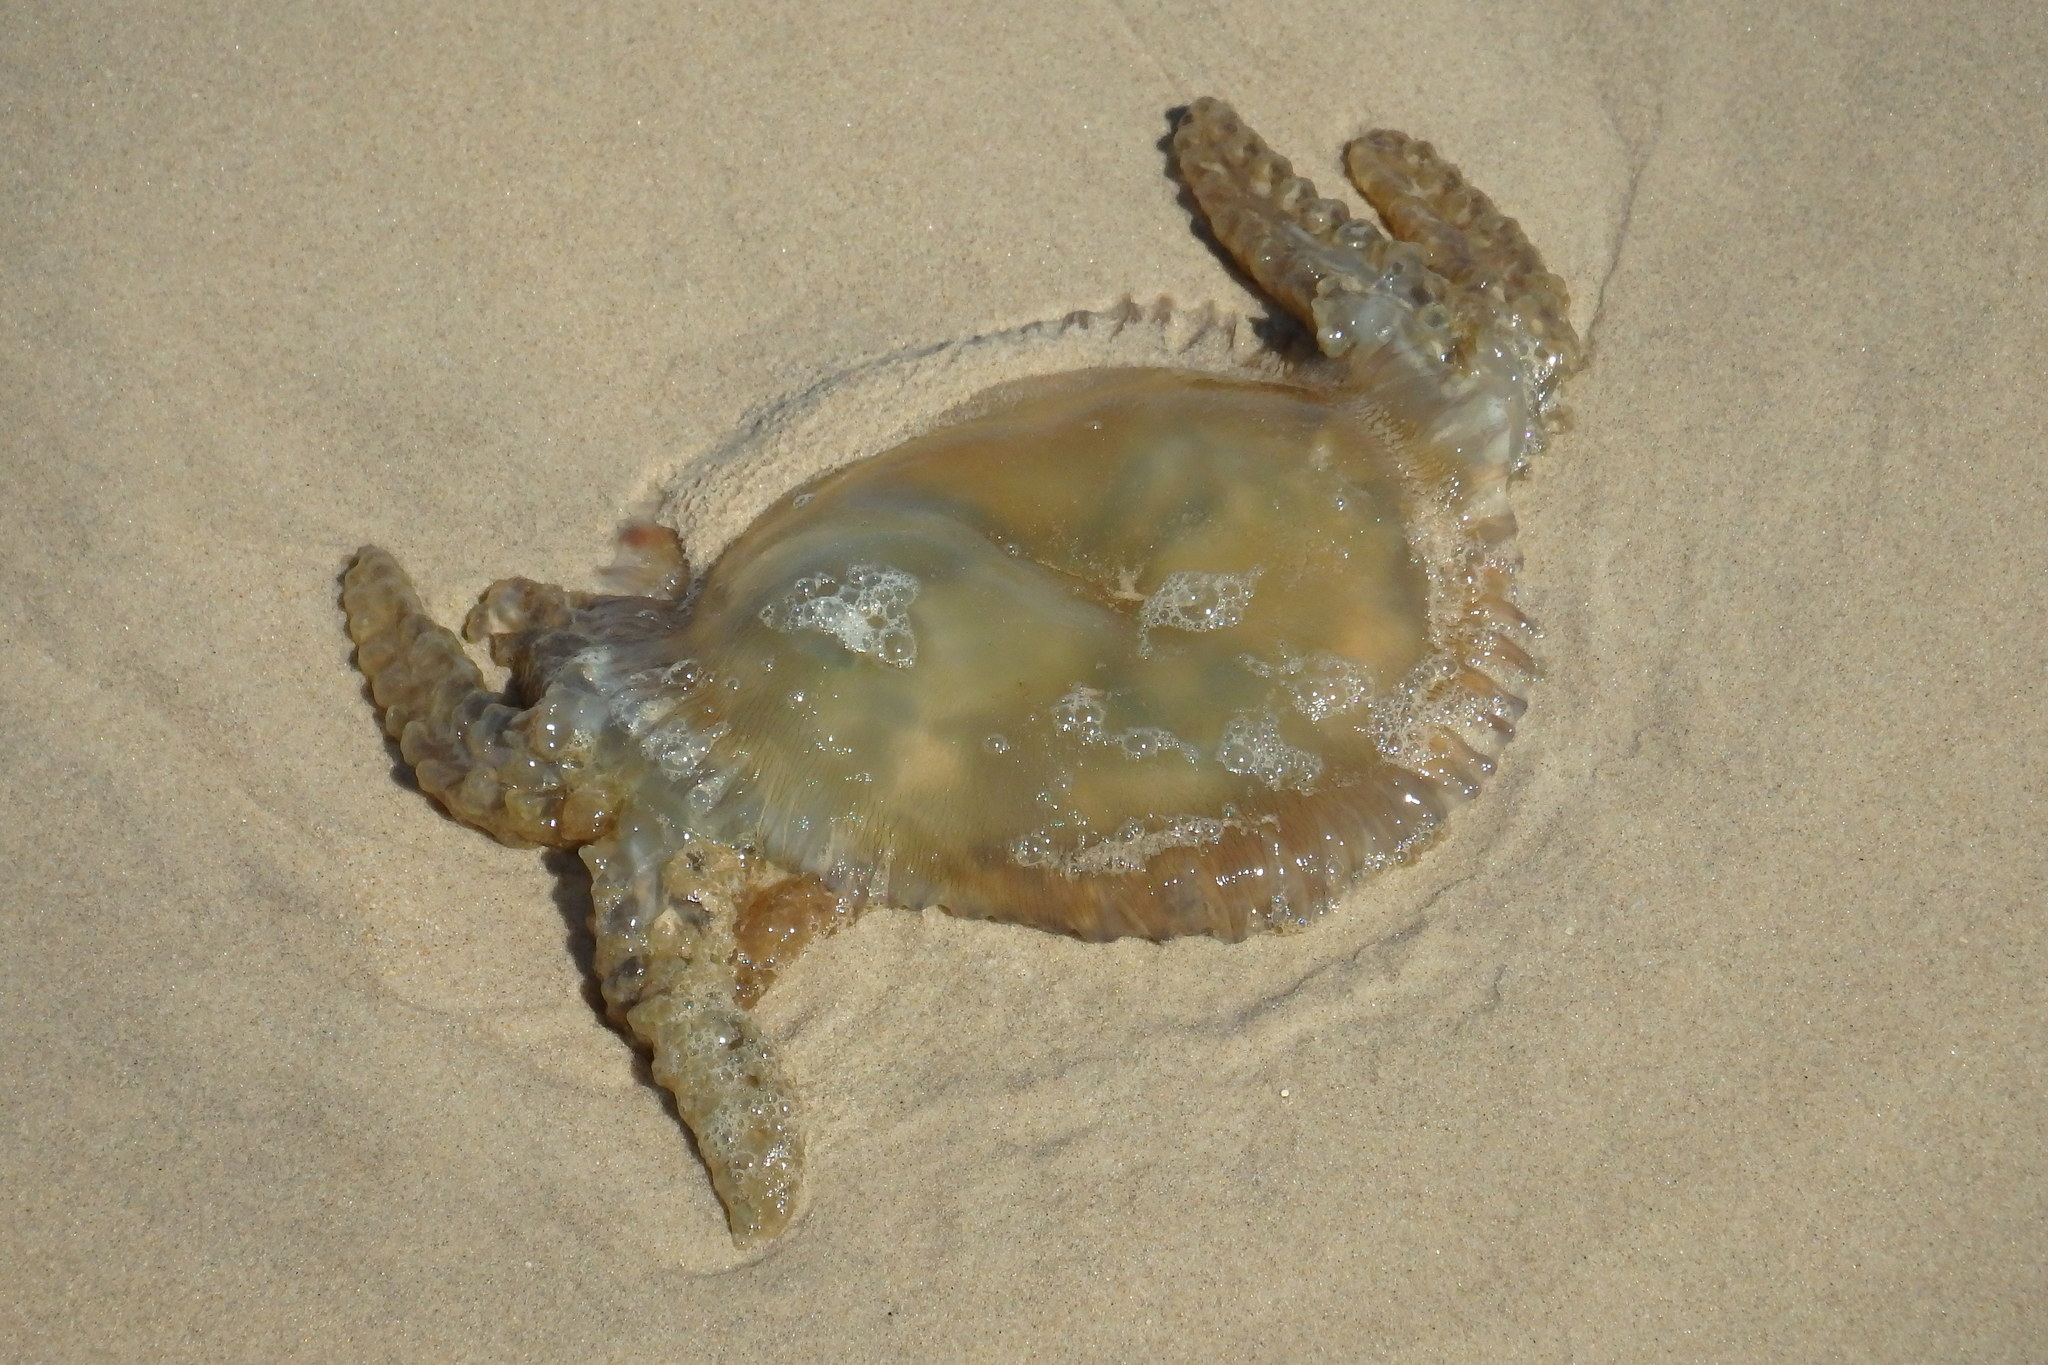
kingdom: Animalia
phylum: Cnidaria
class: Scyphozoa
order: Rhizostomeae
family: Catostylidae
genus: Catostylus
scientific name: Catostylus tagi
